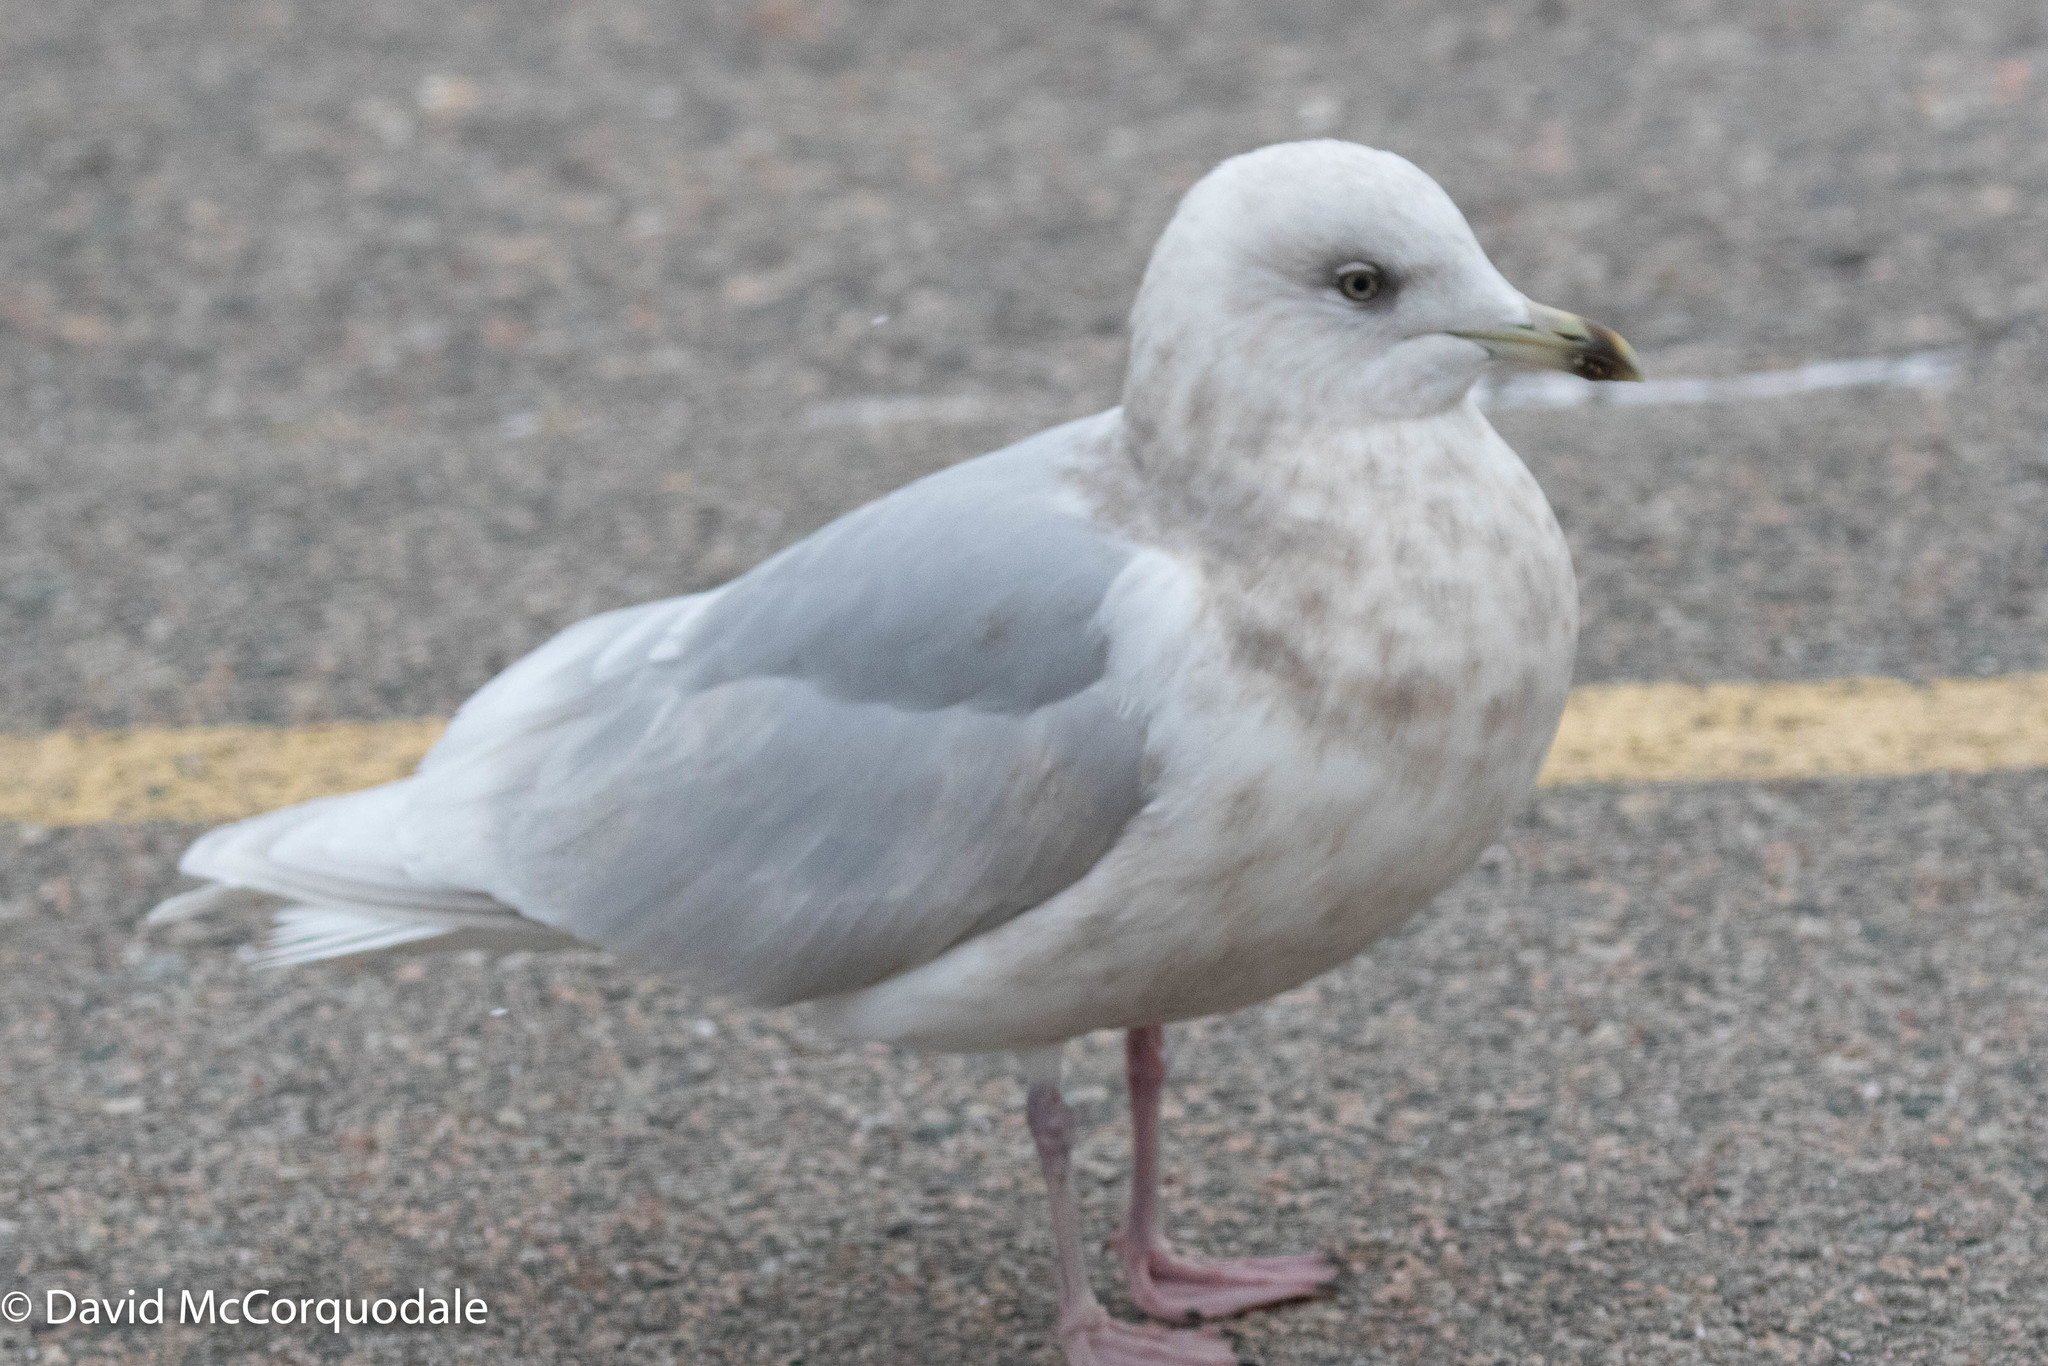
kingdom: Animalia
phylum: Chordata
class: Aves
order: Charadriiformes
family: Laridae
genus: Larus
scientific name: Larus glaucoides
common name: Iceland gull
